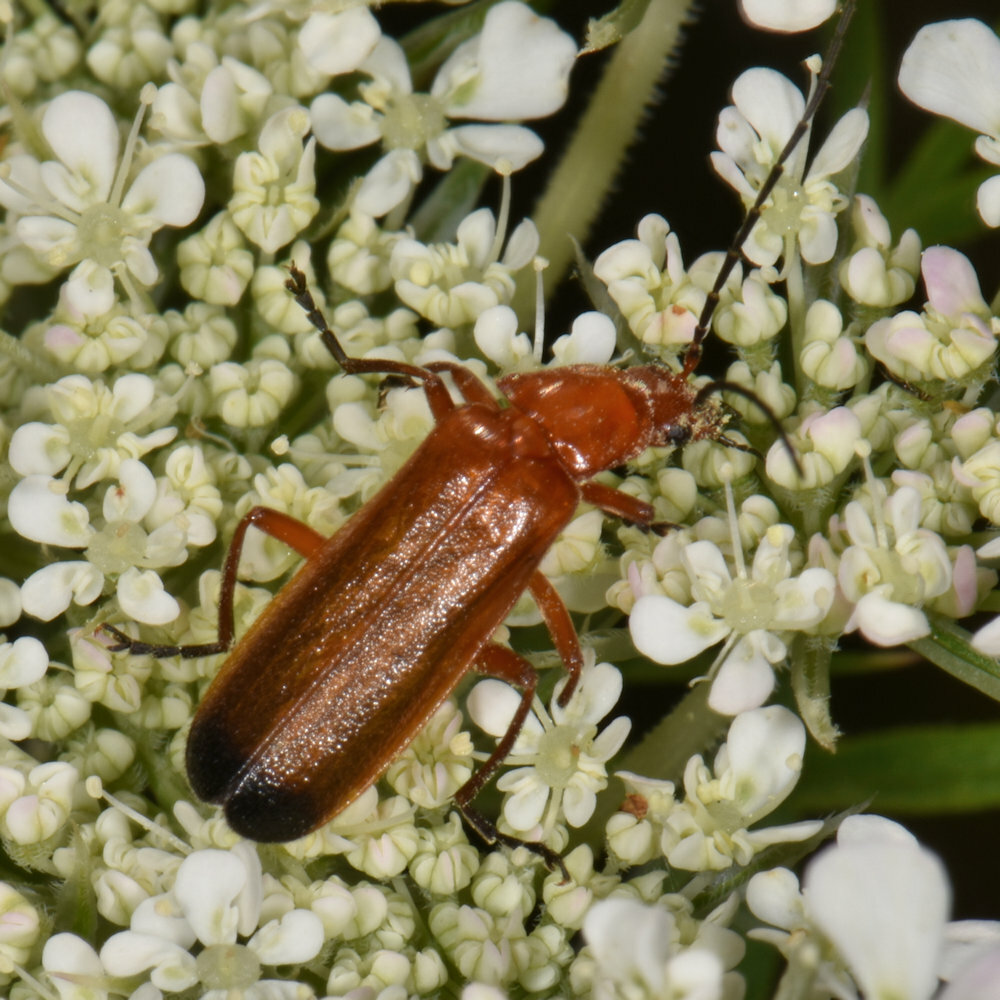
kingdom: Animalia
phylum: Arthropoda
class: Insecta
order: Coleoptera
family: Cantharidae
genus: Rhagonycha
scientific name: Rhagonycha fulva
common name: Common red soldier beetle
